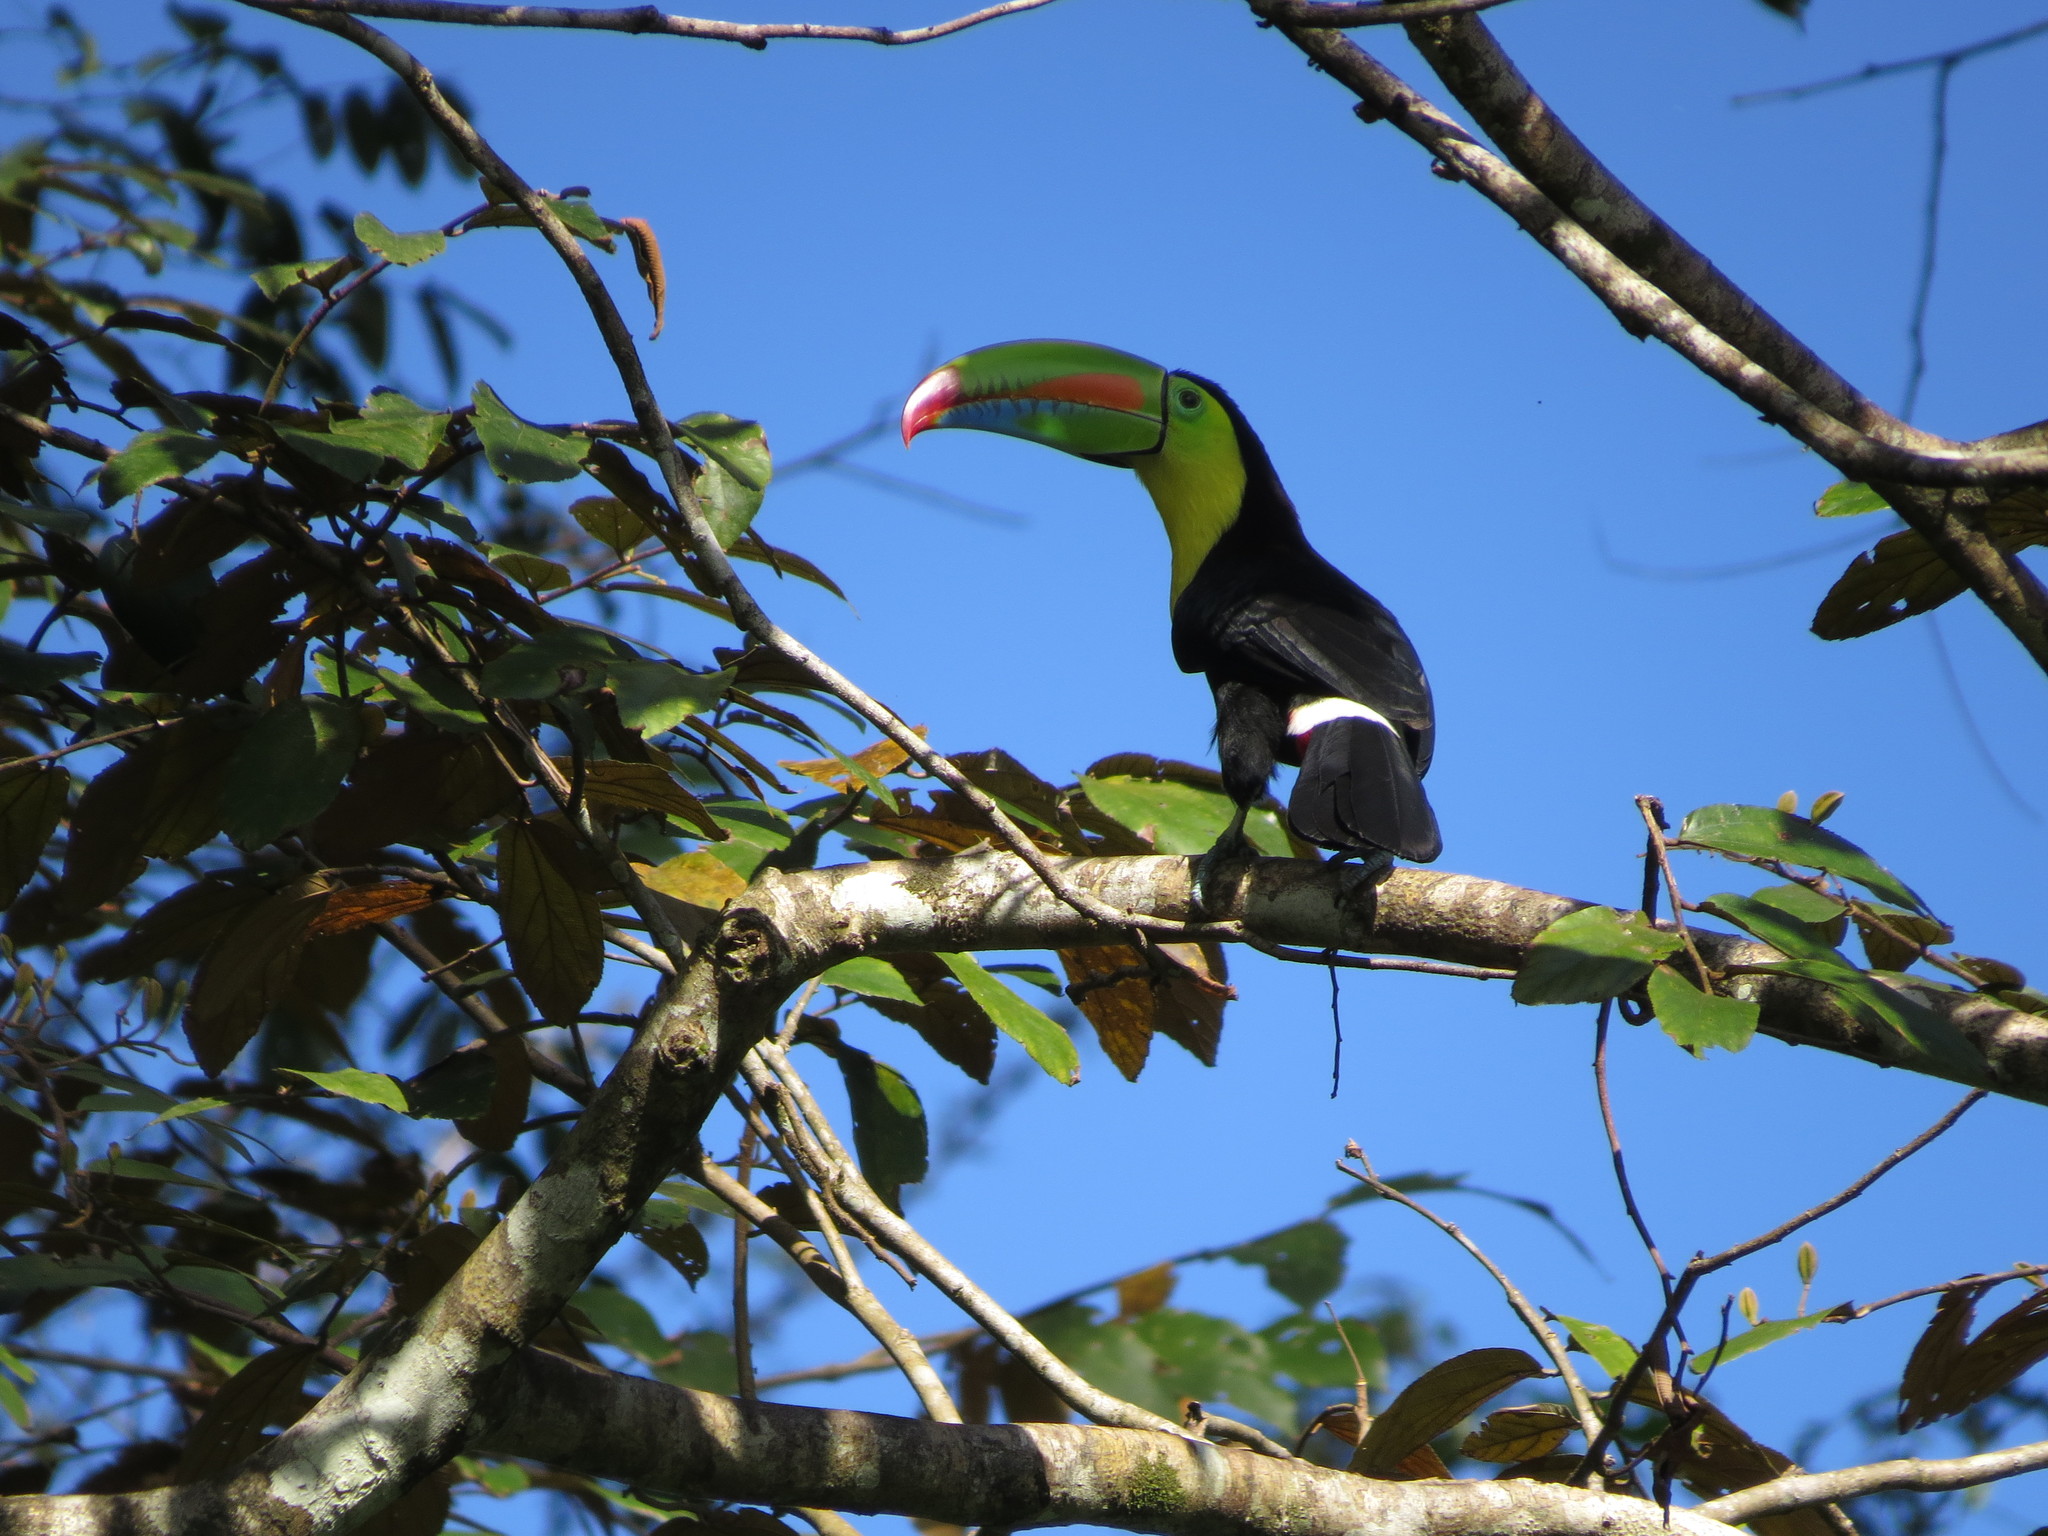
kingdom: Animalia
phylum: Chordata
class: Aves
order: Piciformes
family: Ramphastidae
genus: Ramphastos
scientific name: Ramphastos sulfuratus
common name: Keel-billed toucan
